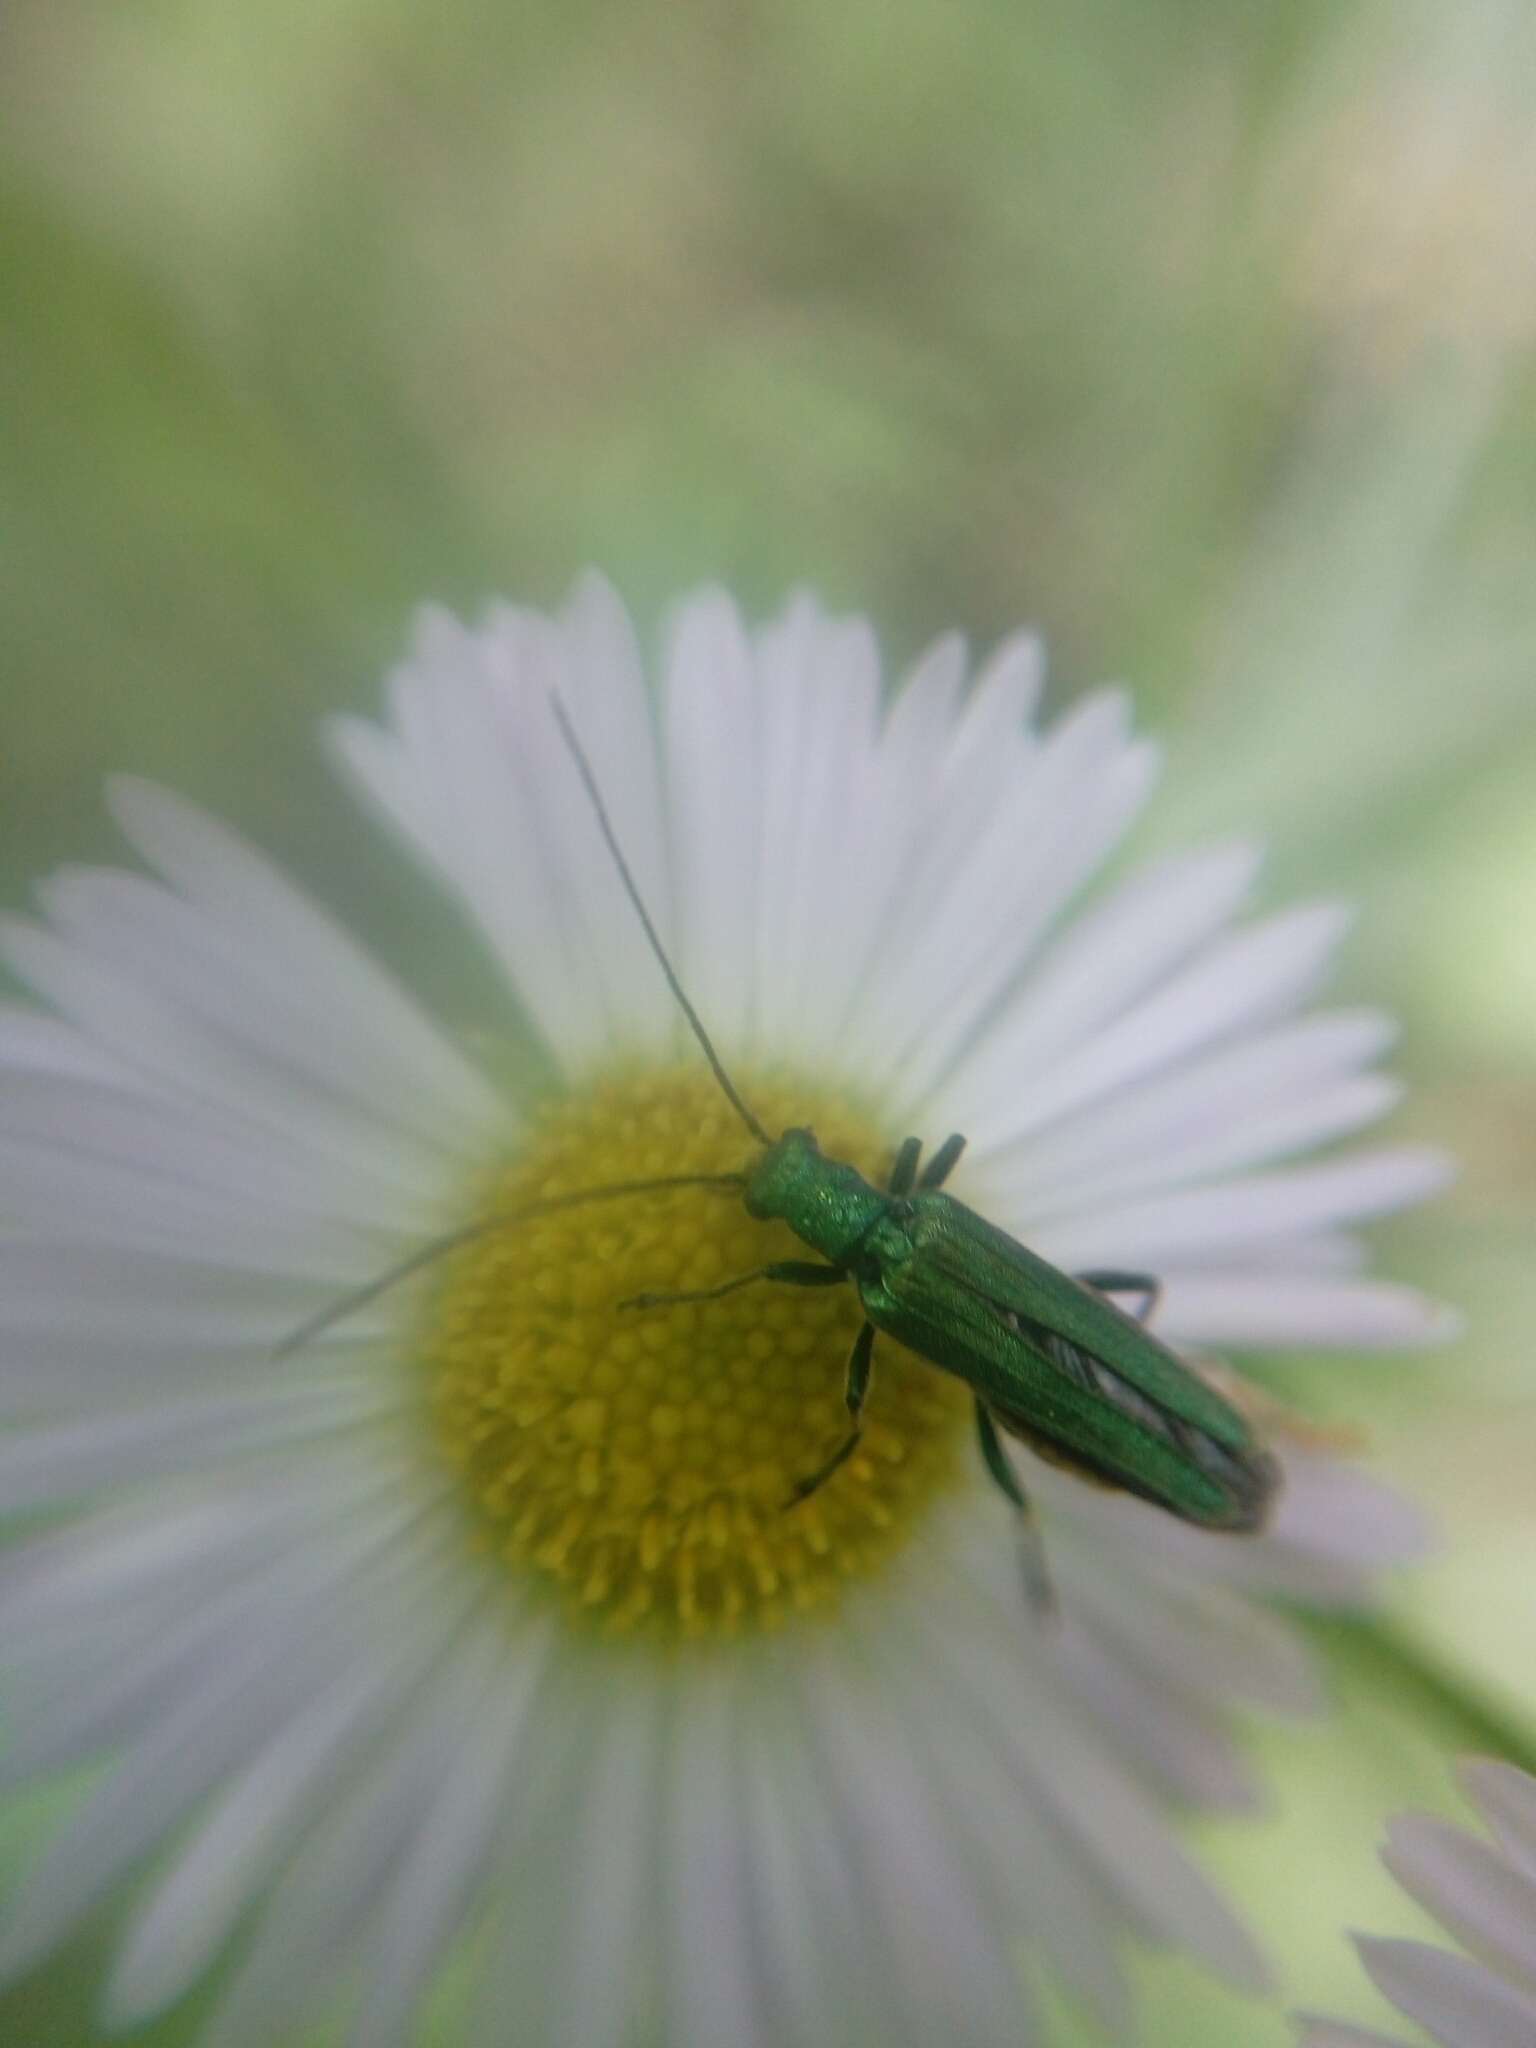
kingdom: Animalia
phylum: Arthropoda
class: Insecta
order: Coleoptera
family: Oedemeridae
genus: Oedemera
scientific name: Oedemera nobilis
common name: Swollen-thighed beetle
